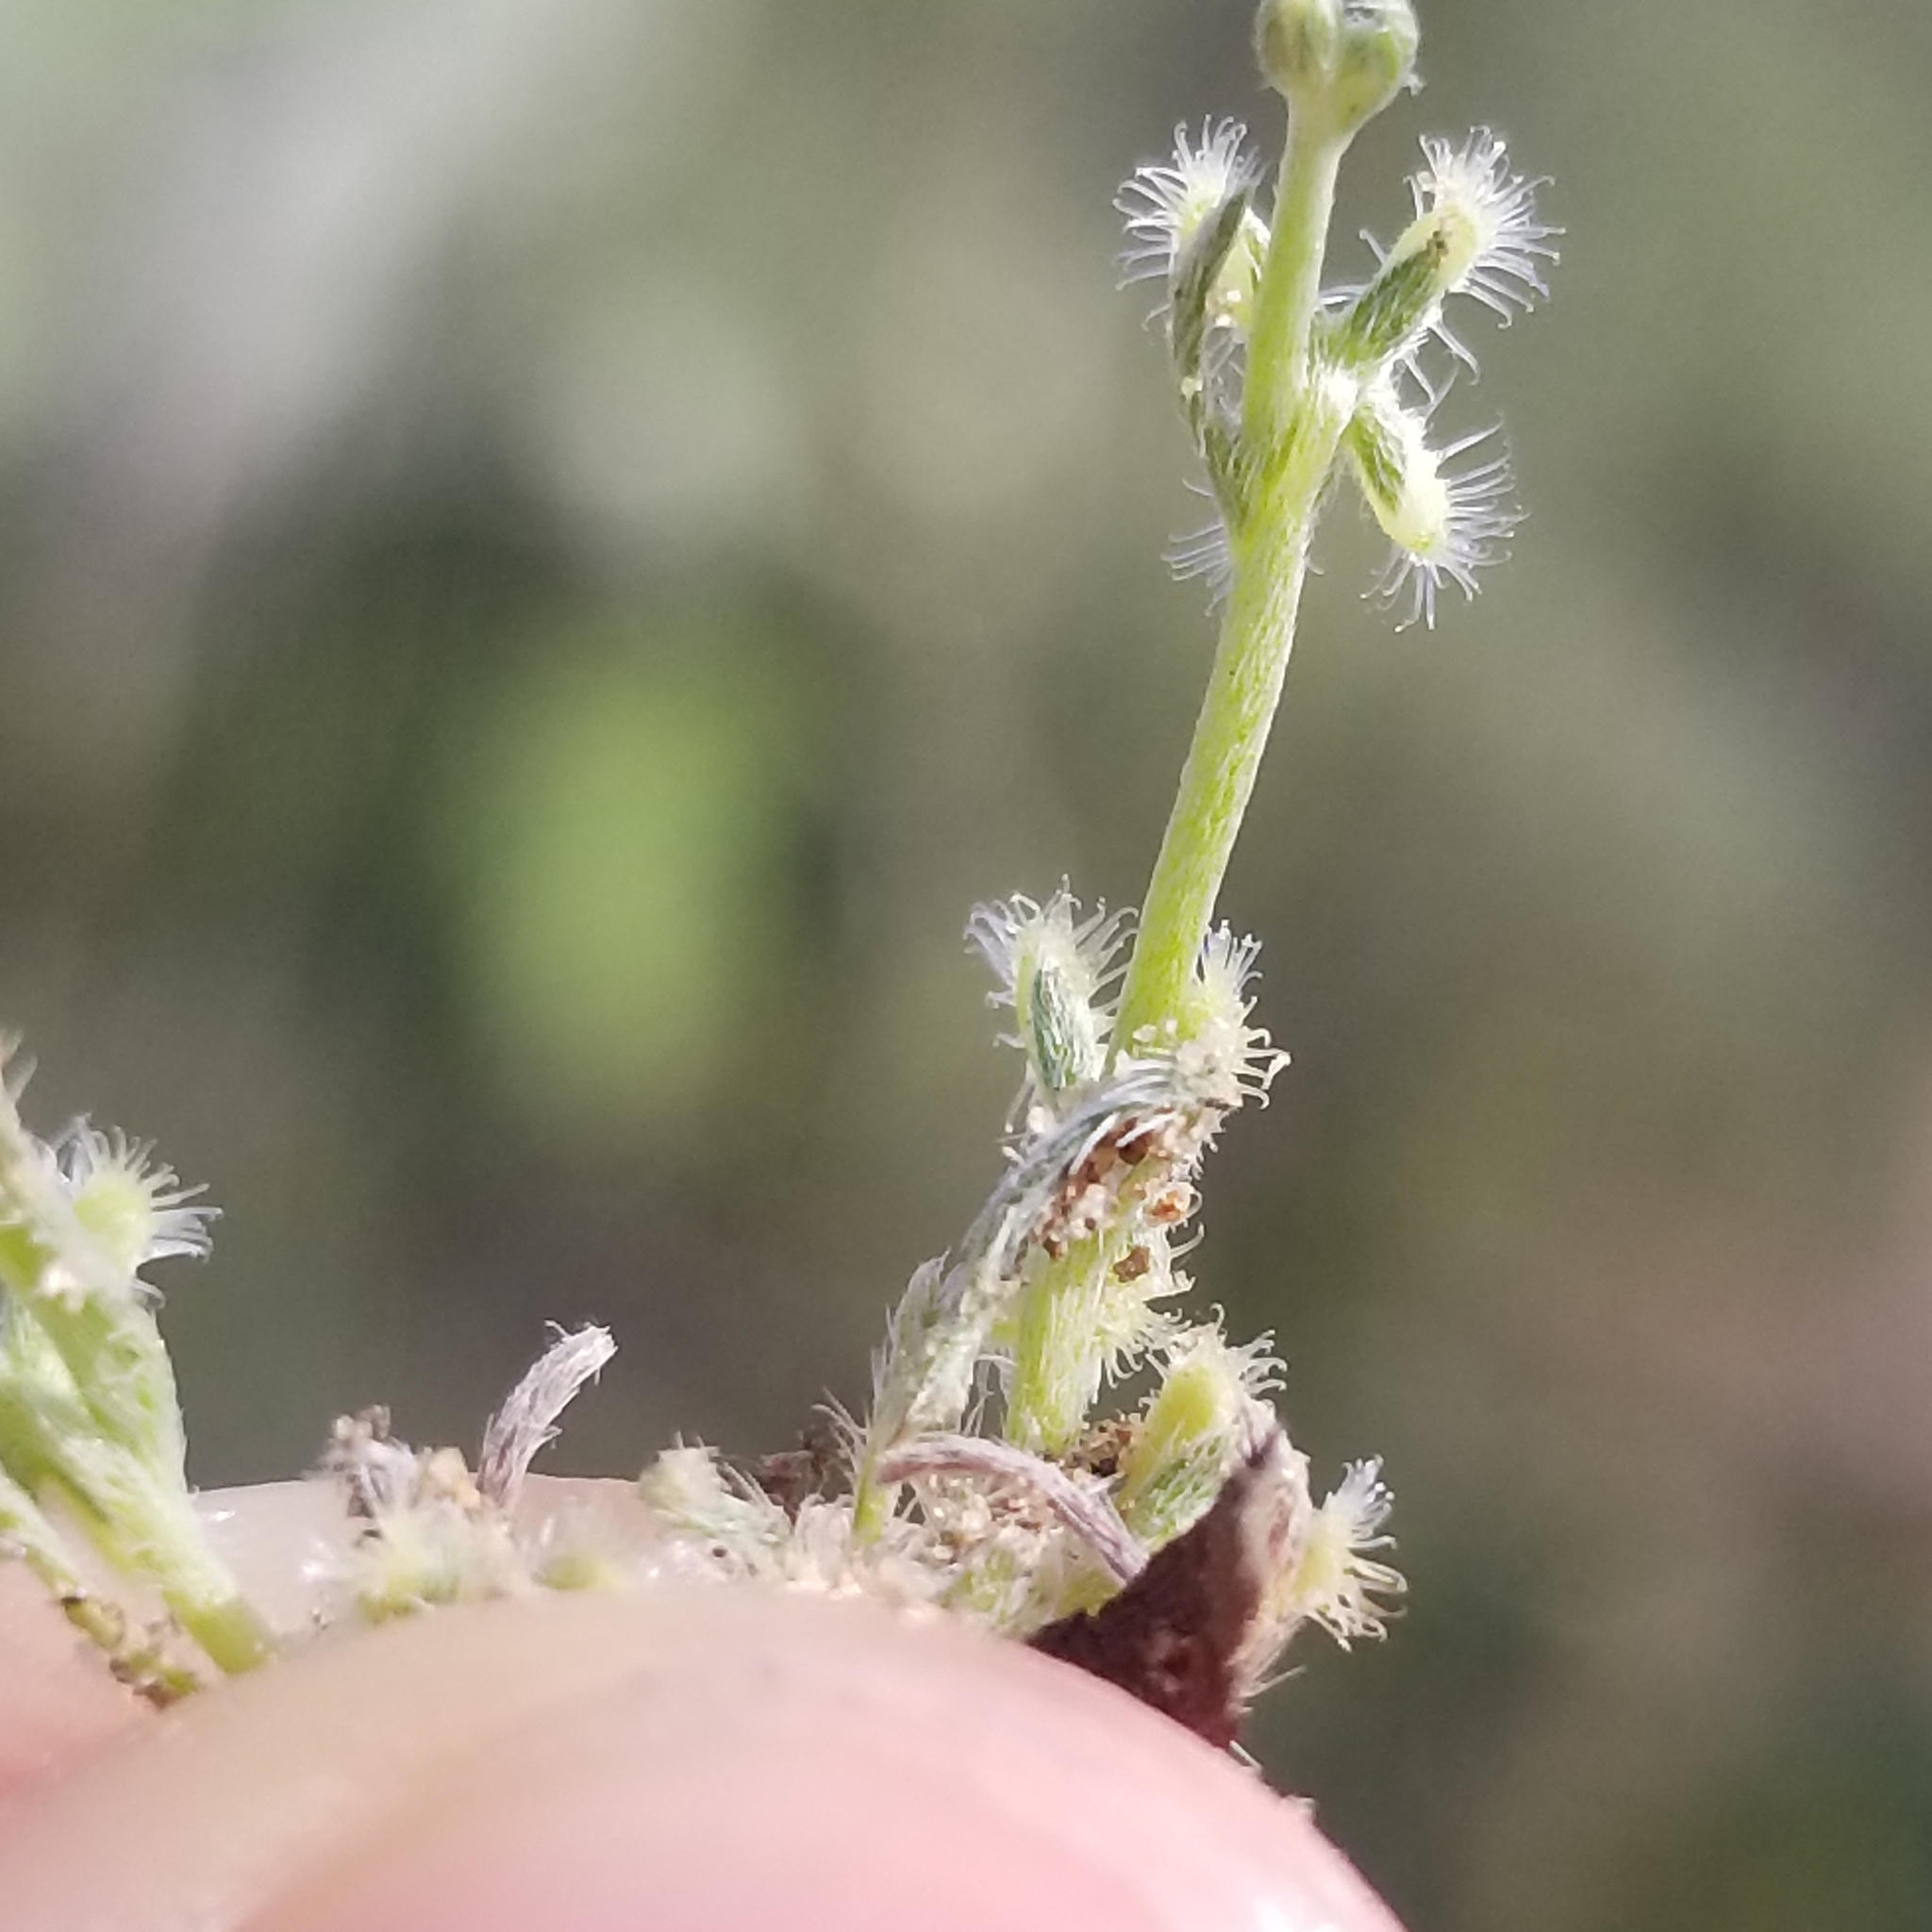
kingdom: Plantae
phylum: Tracheophyta
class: Magnoliopsida
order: Boraginales
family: Boraginaceae
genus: Pectocarya
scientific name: Pectocarya linearis
